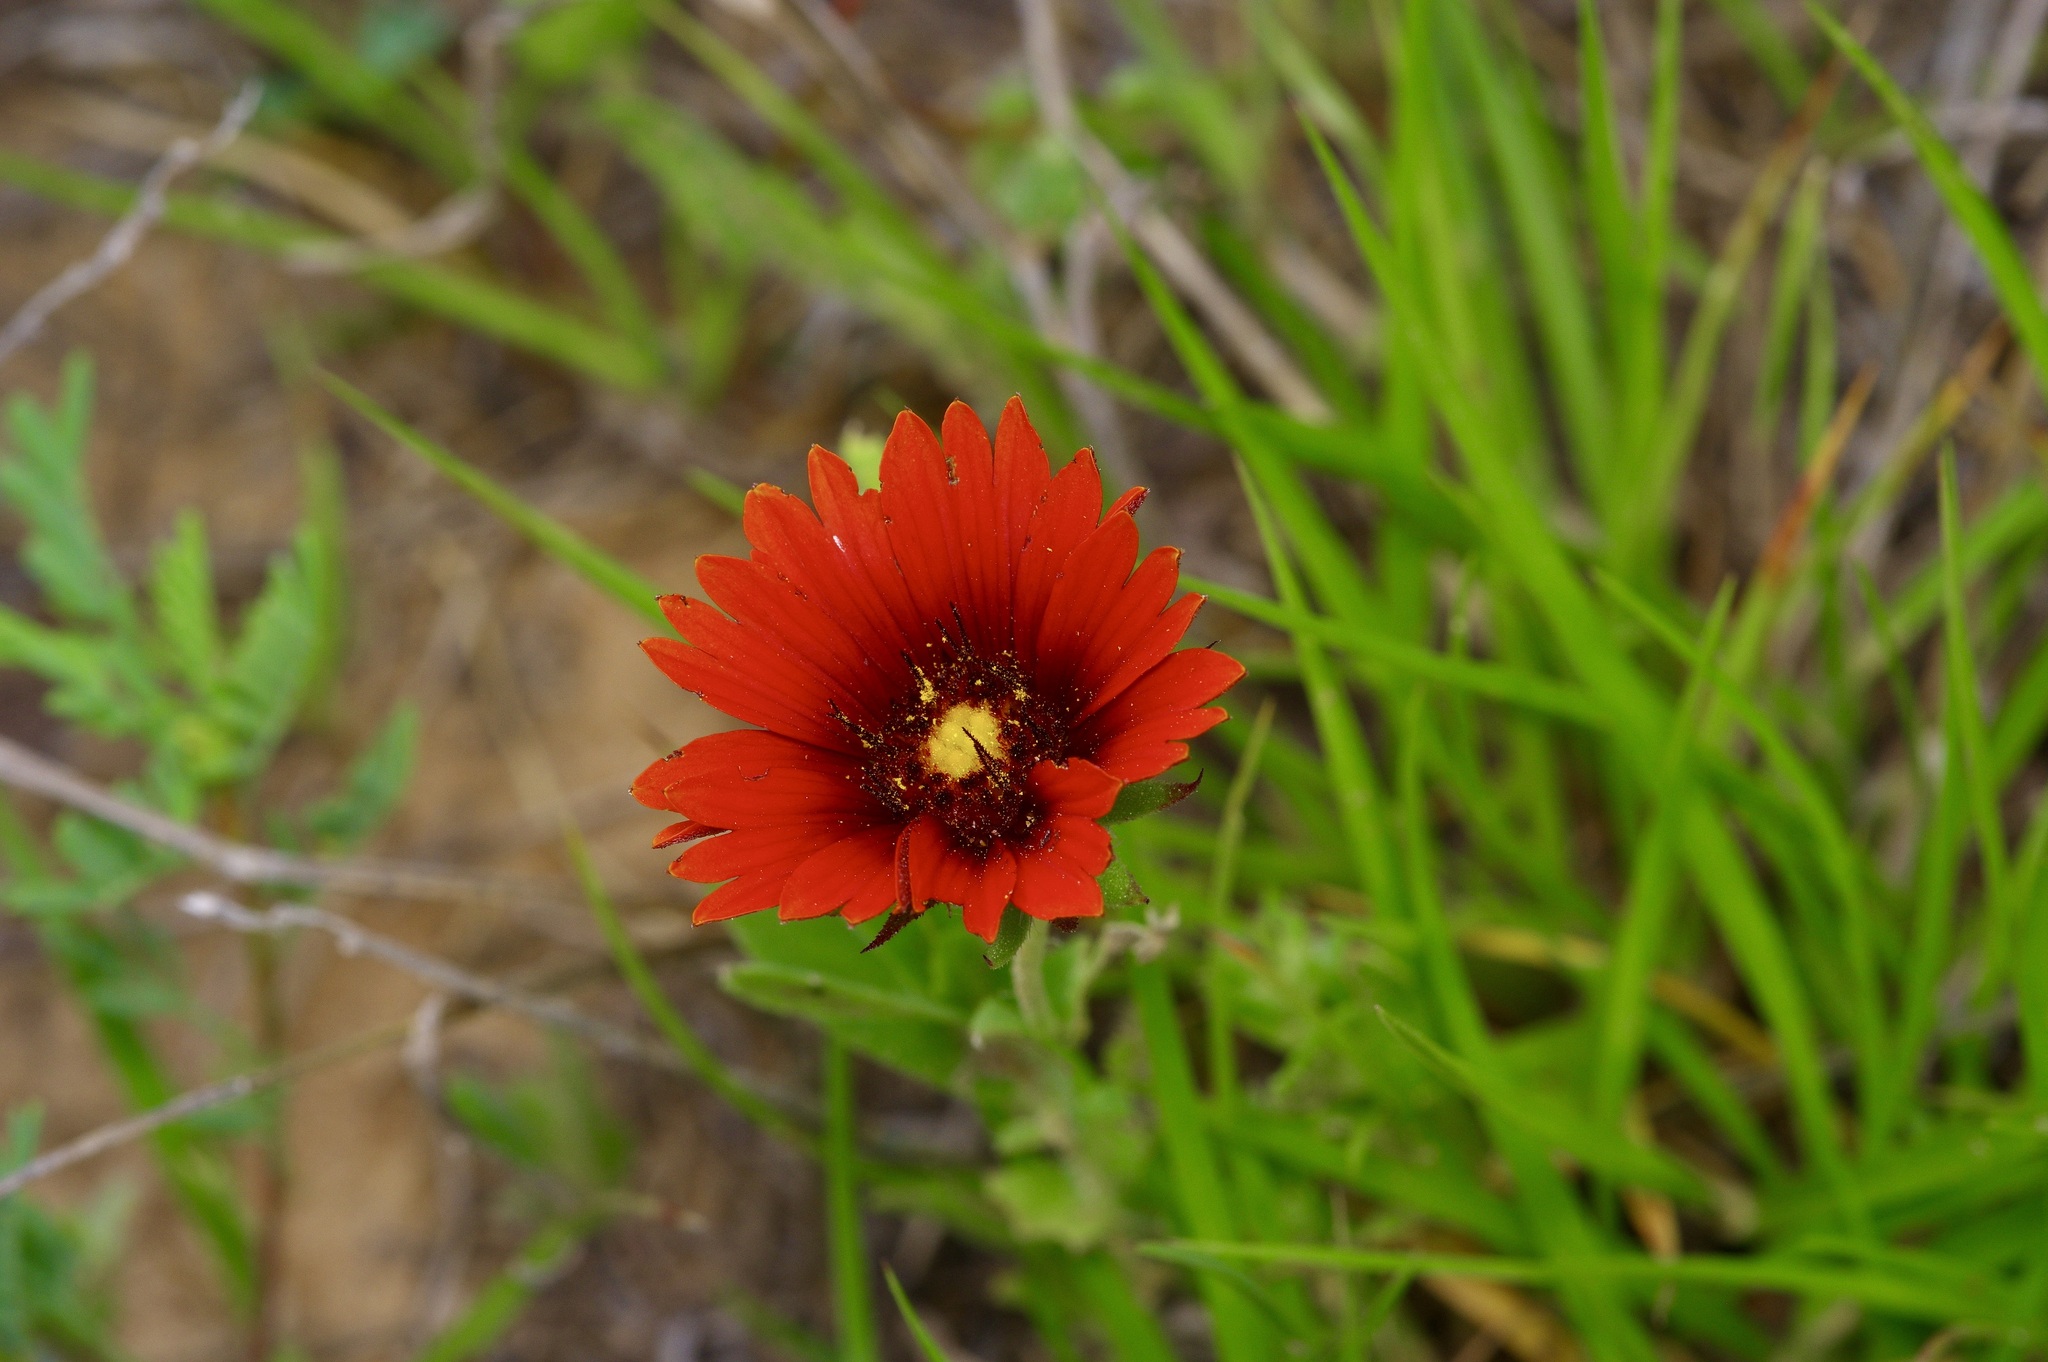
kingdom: Plantae
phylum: Tracheophyta
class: Magnoliopsida
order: Asterales
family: Asteraceae
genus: Gaillardia
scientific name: Gaillardia amblyodon
